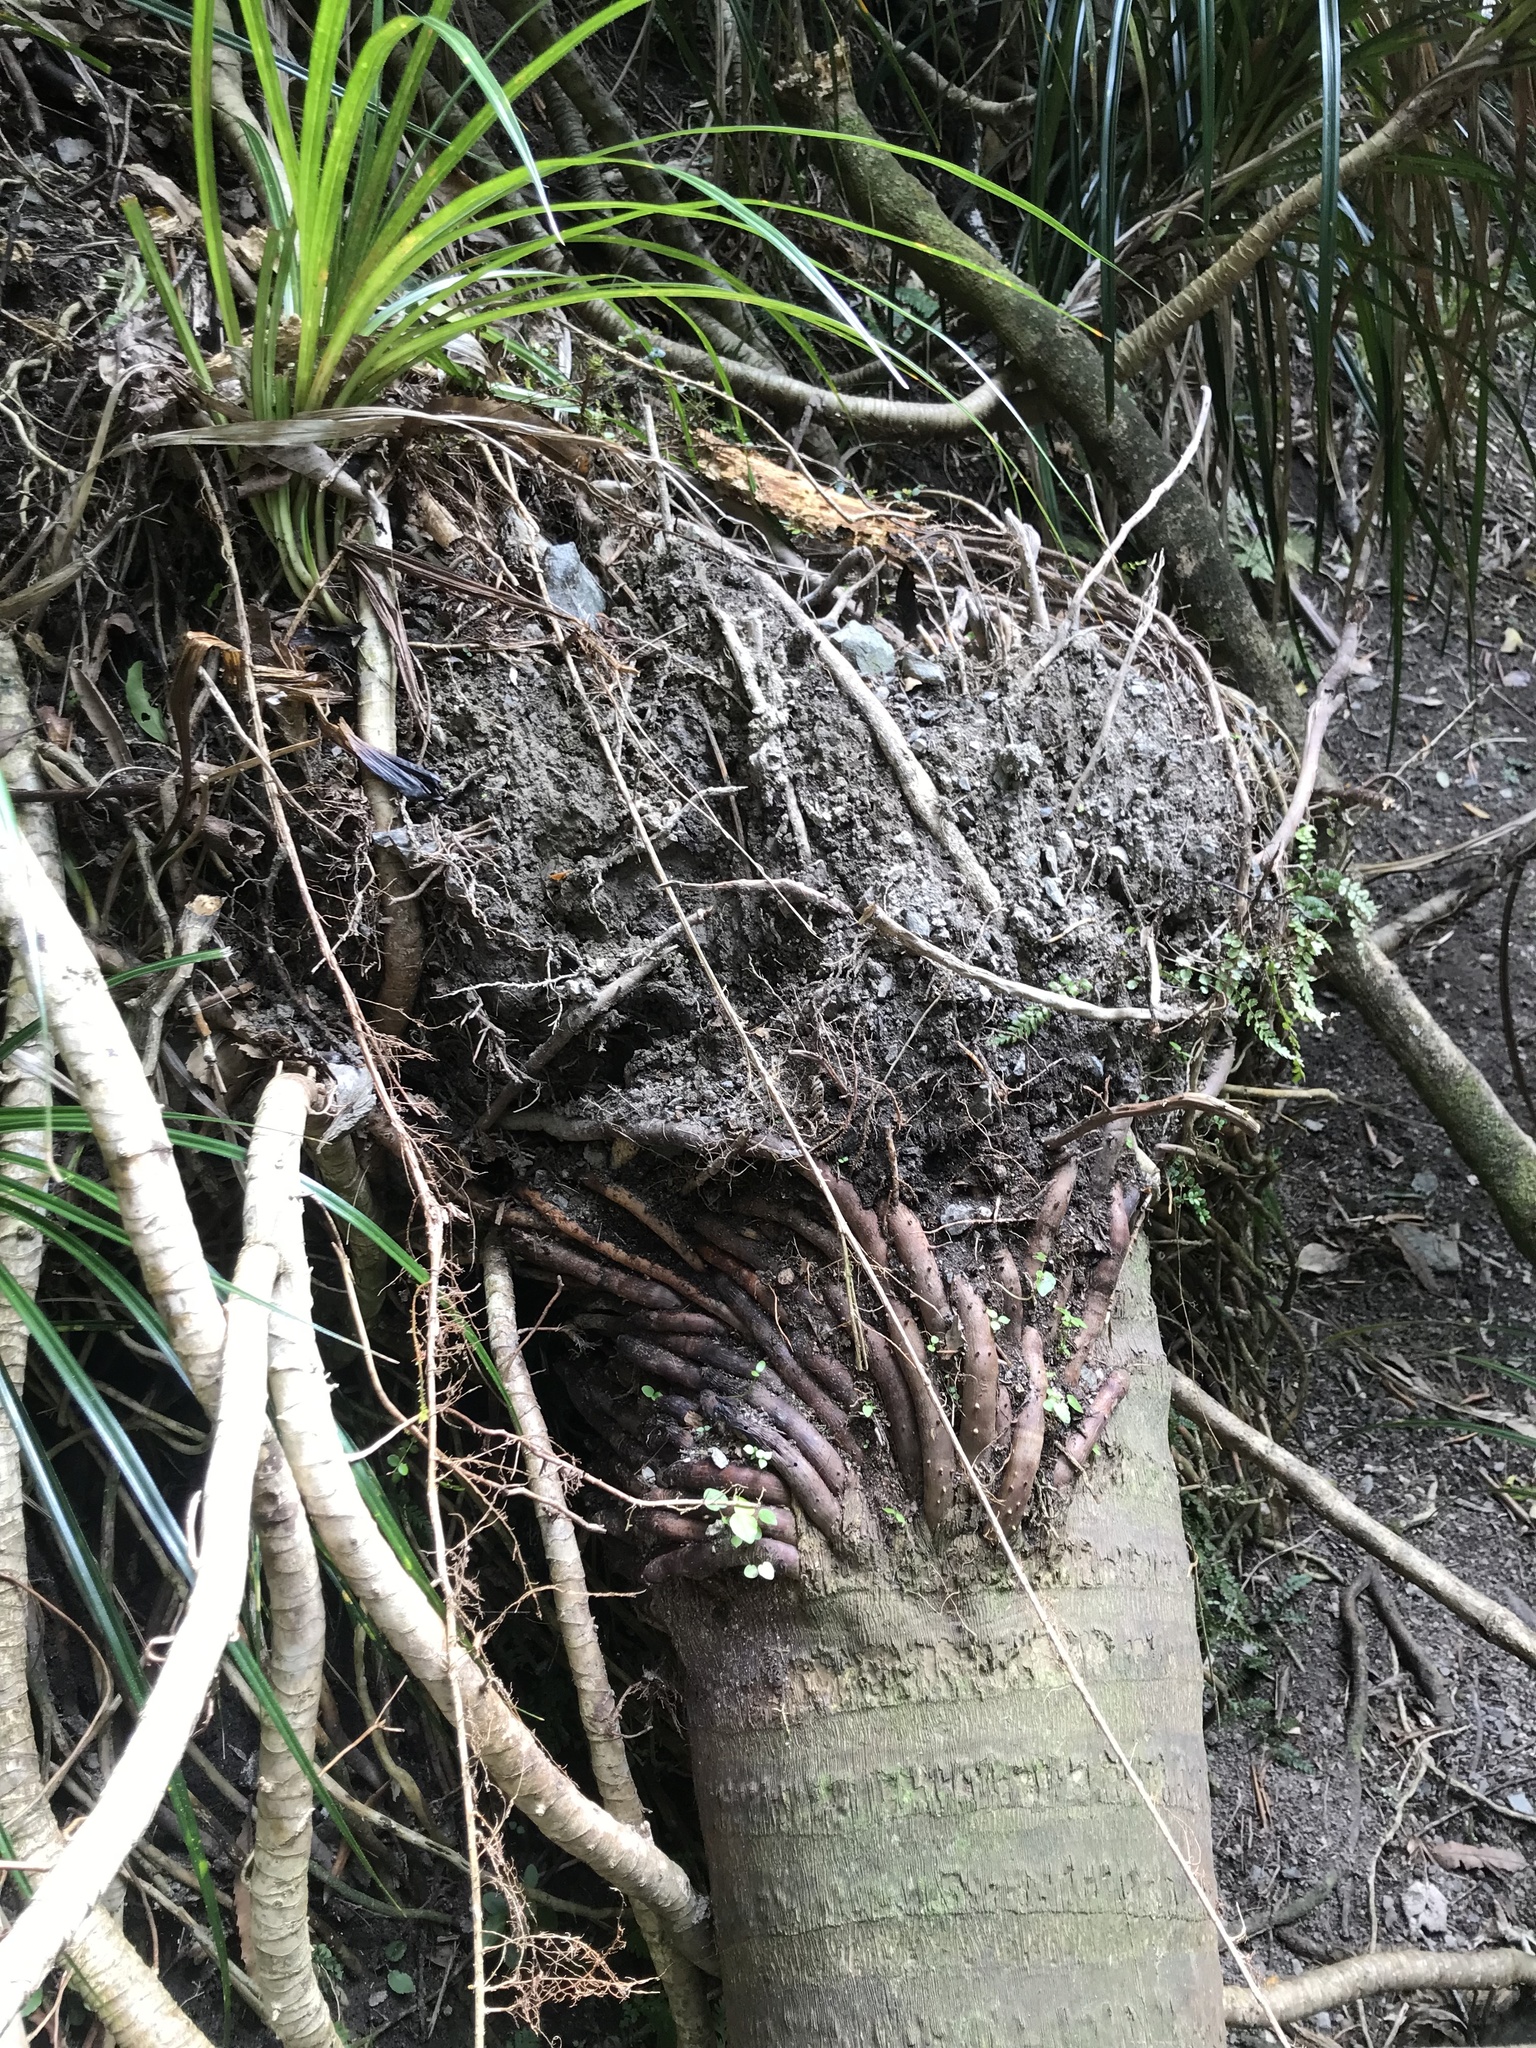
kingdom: Plantae
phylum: Tracheophyta
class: Liliopsida
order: Arecales
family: Arecaceae
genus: Rhopalostylis
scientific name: Rhopalostylis sapida
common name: Feather-duster palm
